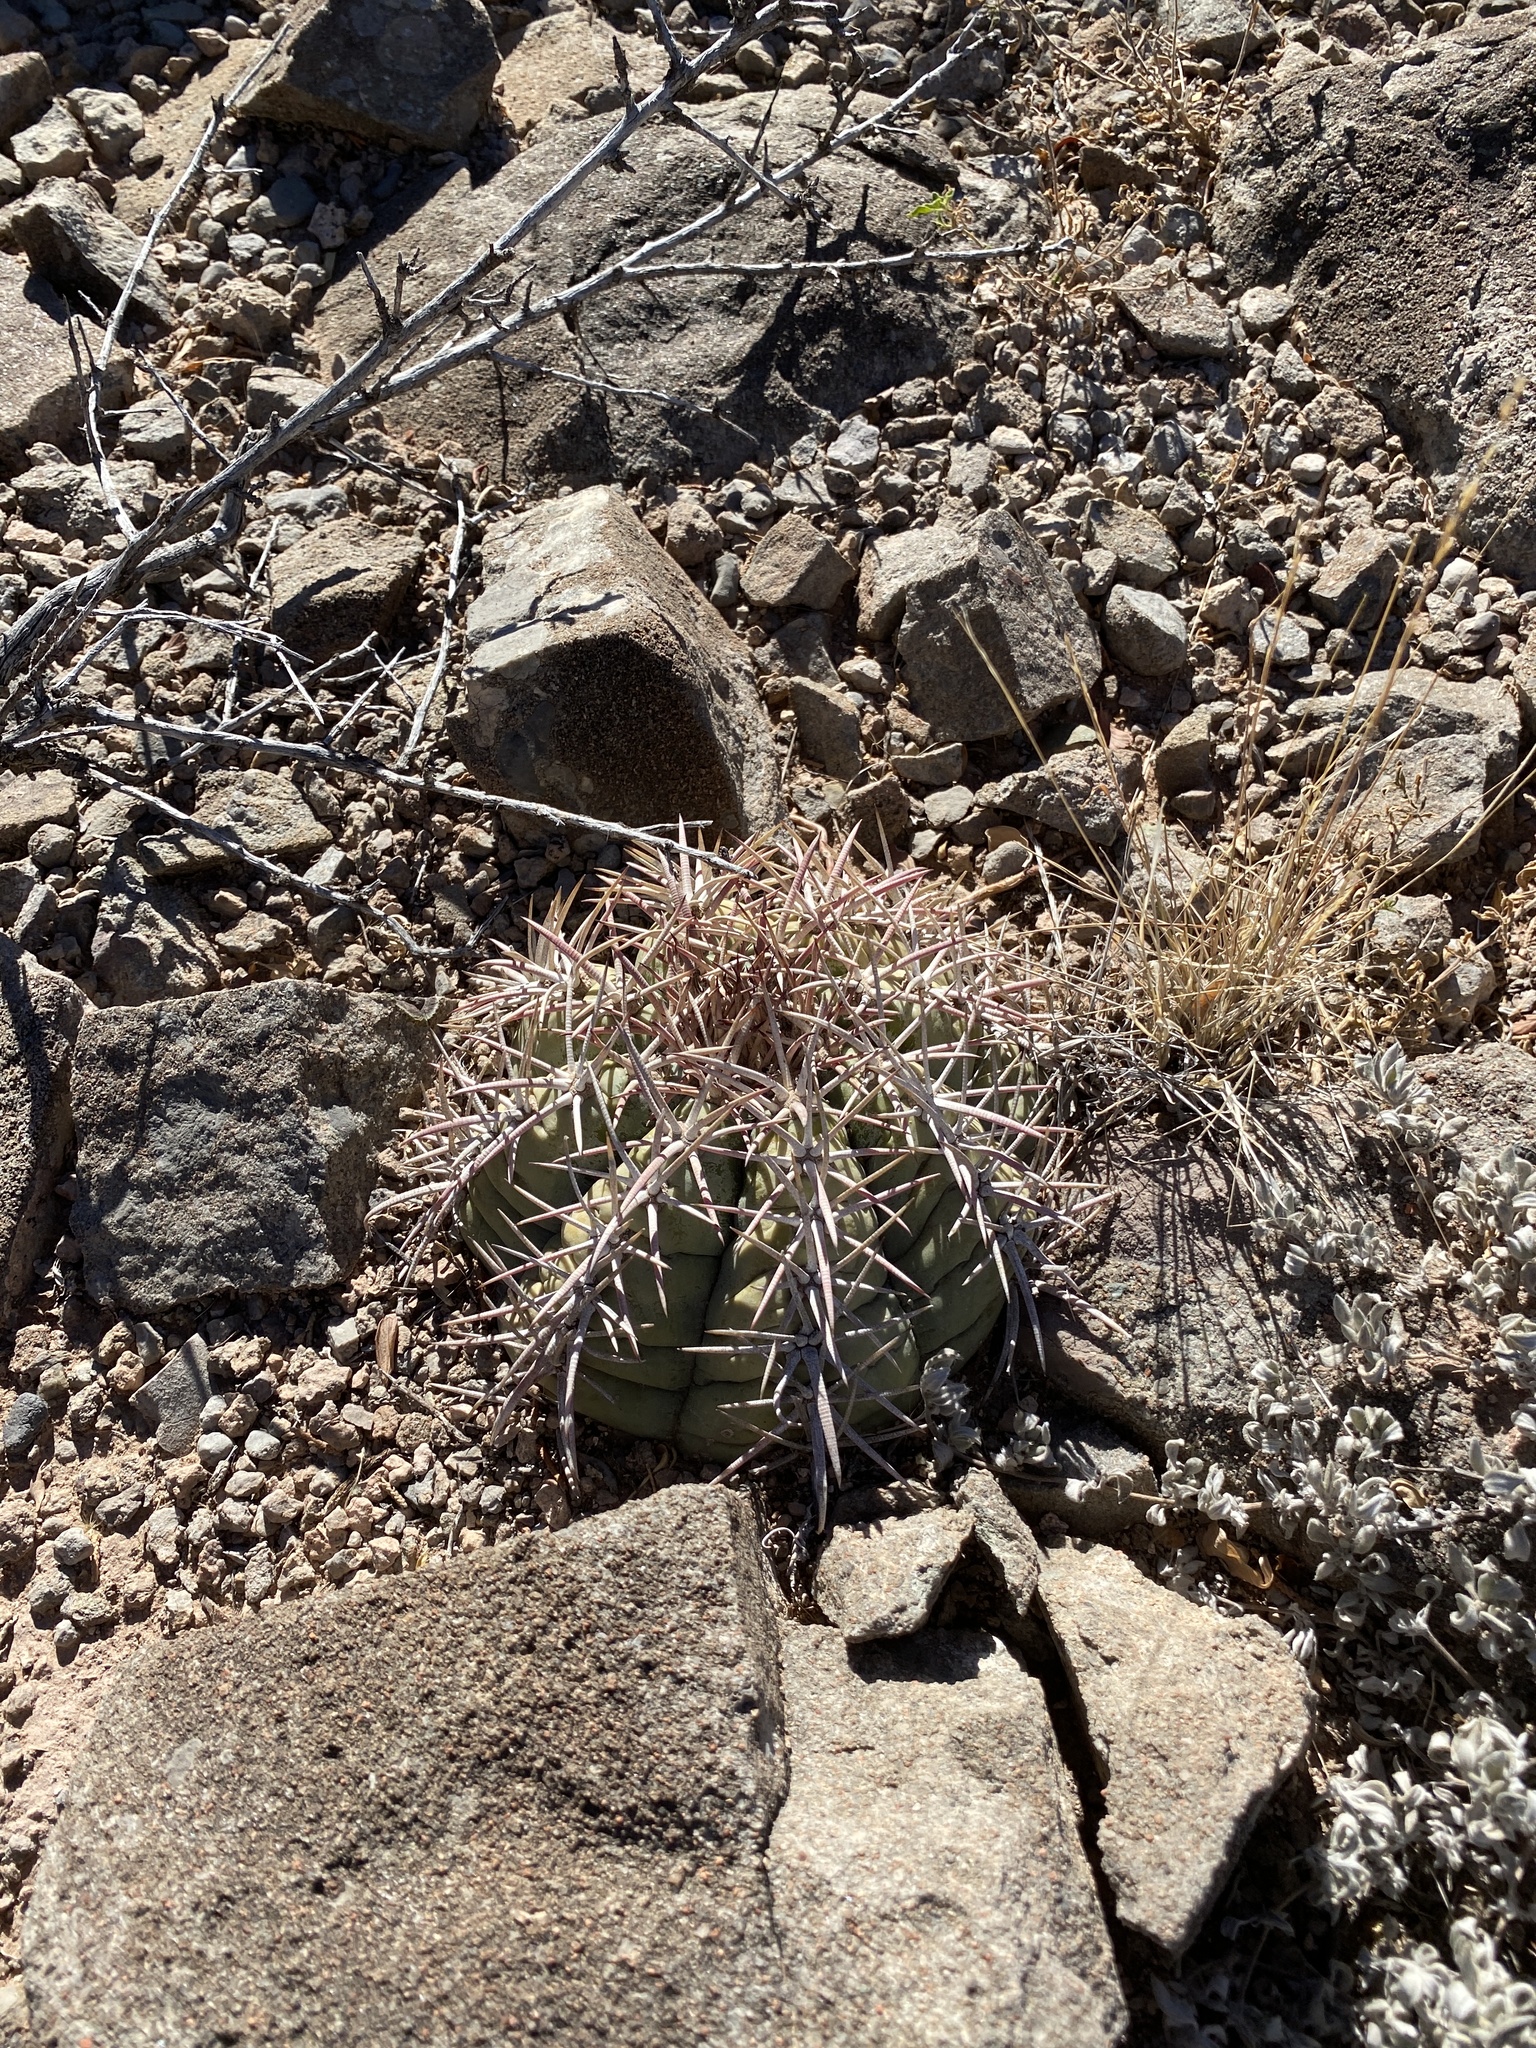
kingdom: Plantae
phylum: Tracheophyta
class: Magnoliopsida
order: Caryophyllales
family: Cactaceae
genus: Echinocactus
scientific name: Echinocactus horizonthalonius
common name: Devilshead
